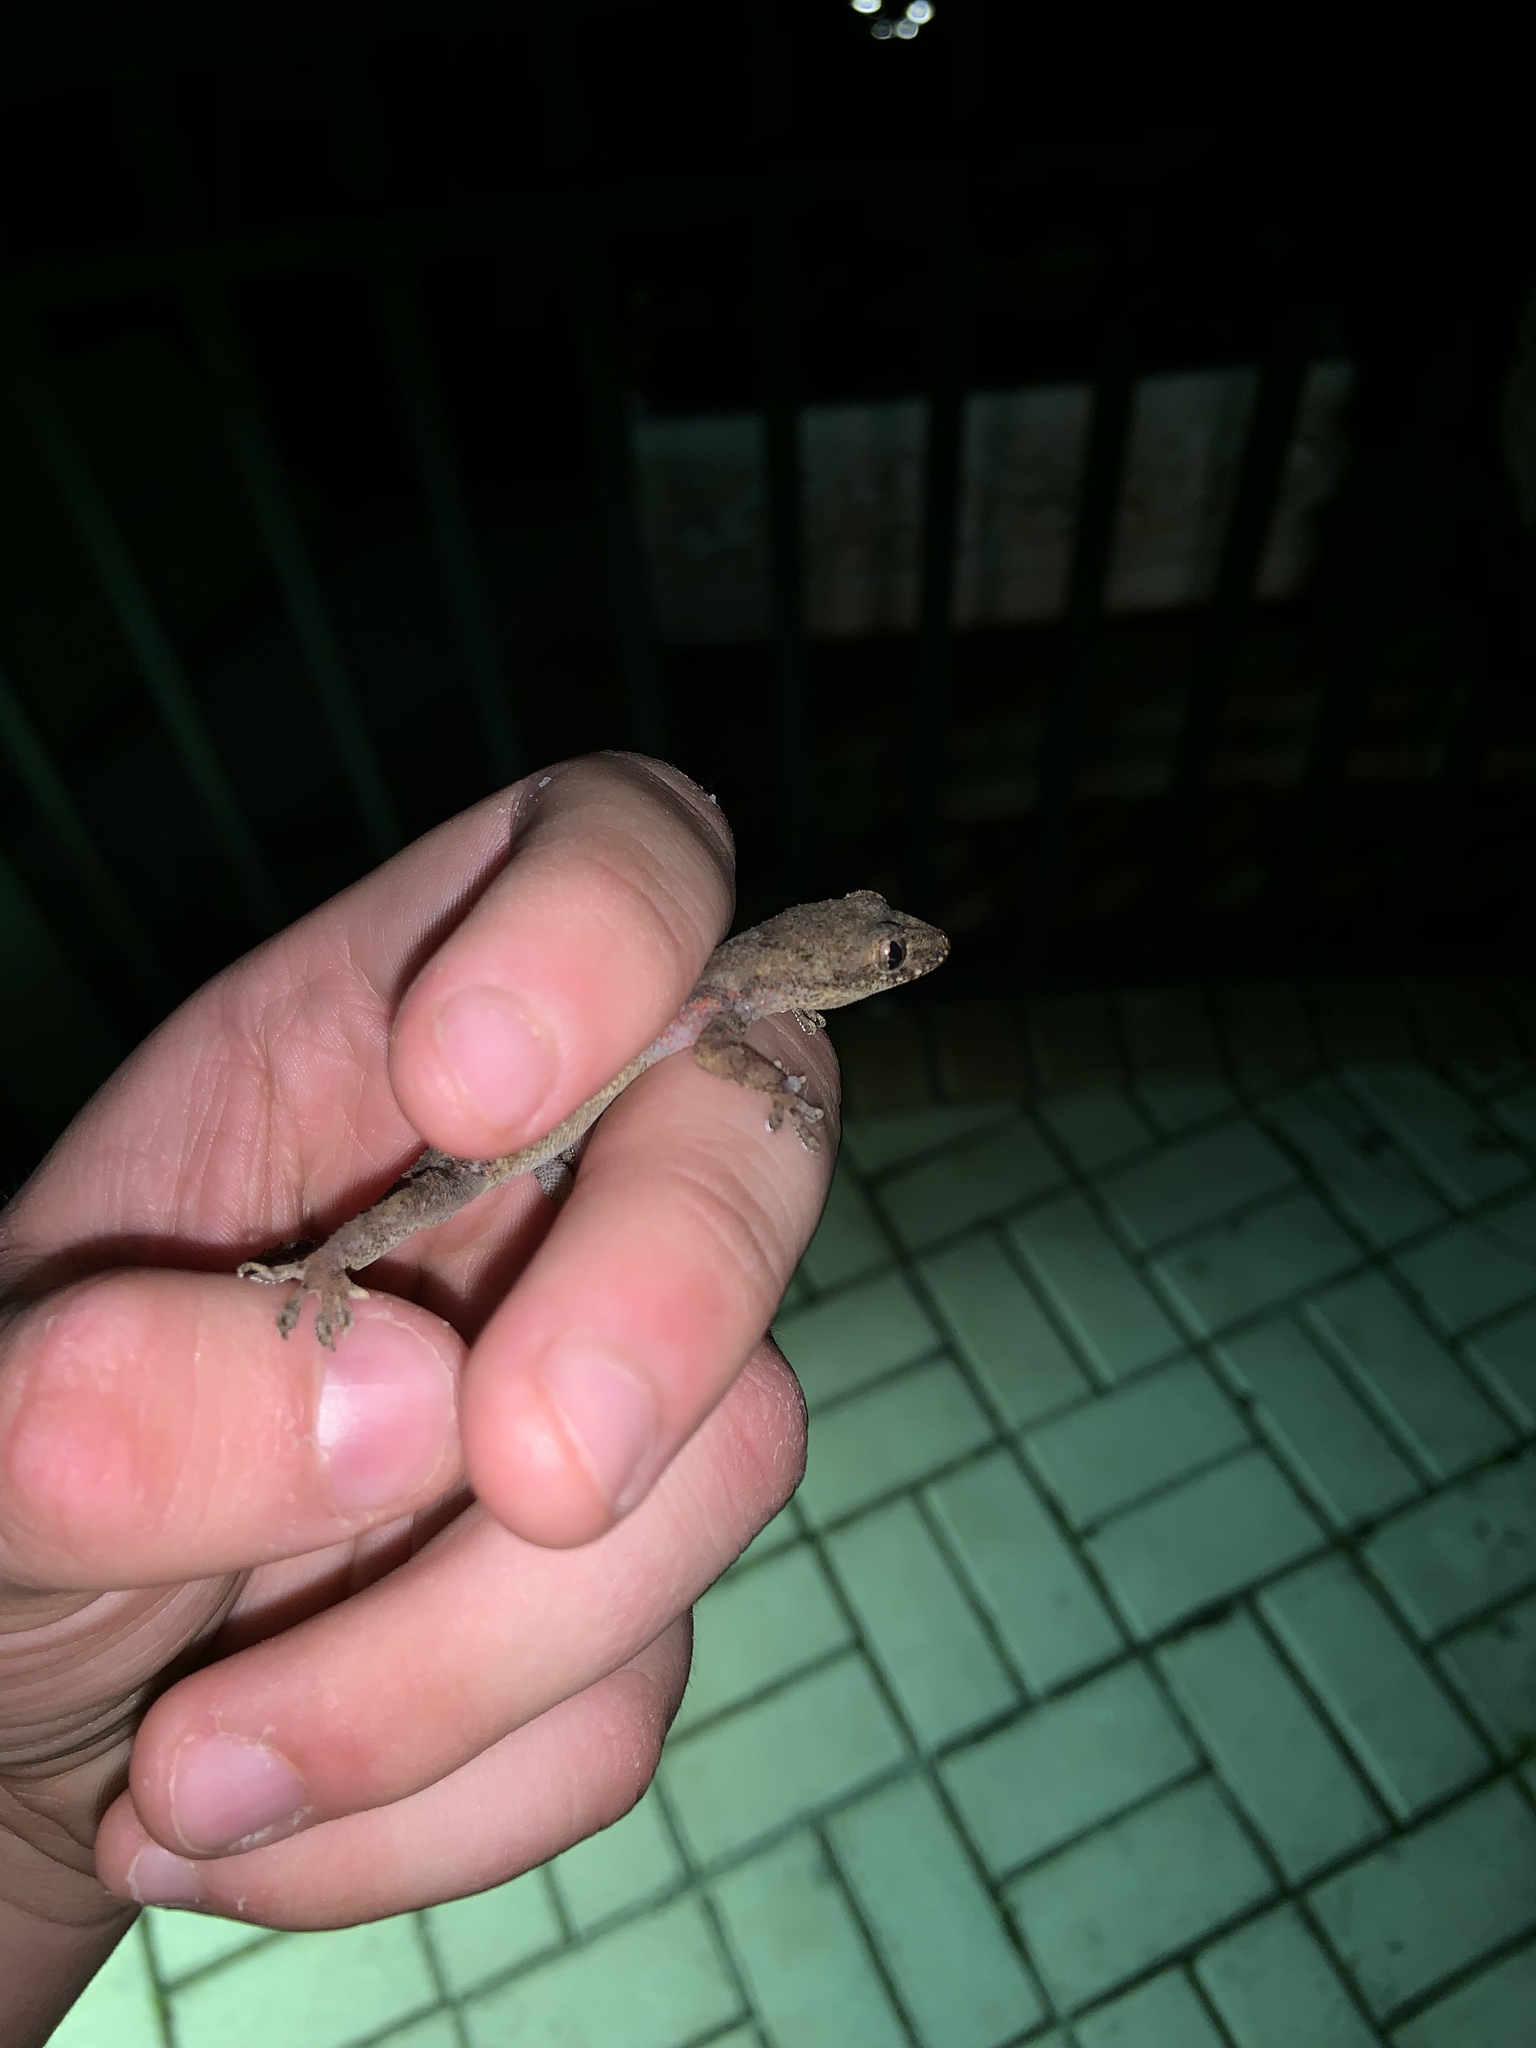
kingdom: Animalia
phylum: Chordata
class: Squamata
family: Gekkonidae
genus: Hemidactylus
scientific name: Hemidactylus mabouia
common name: House gecko
